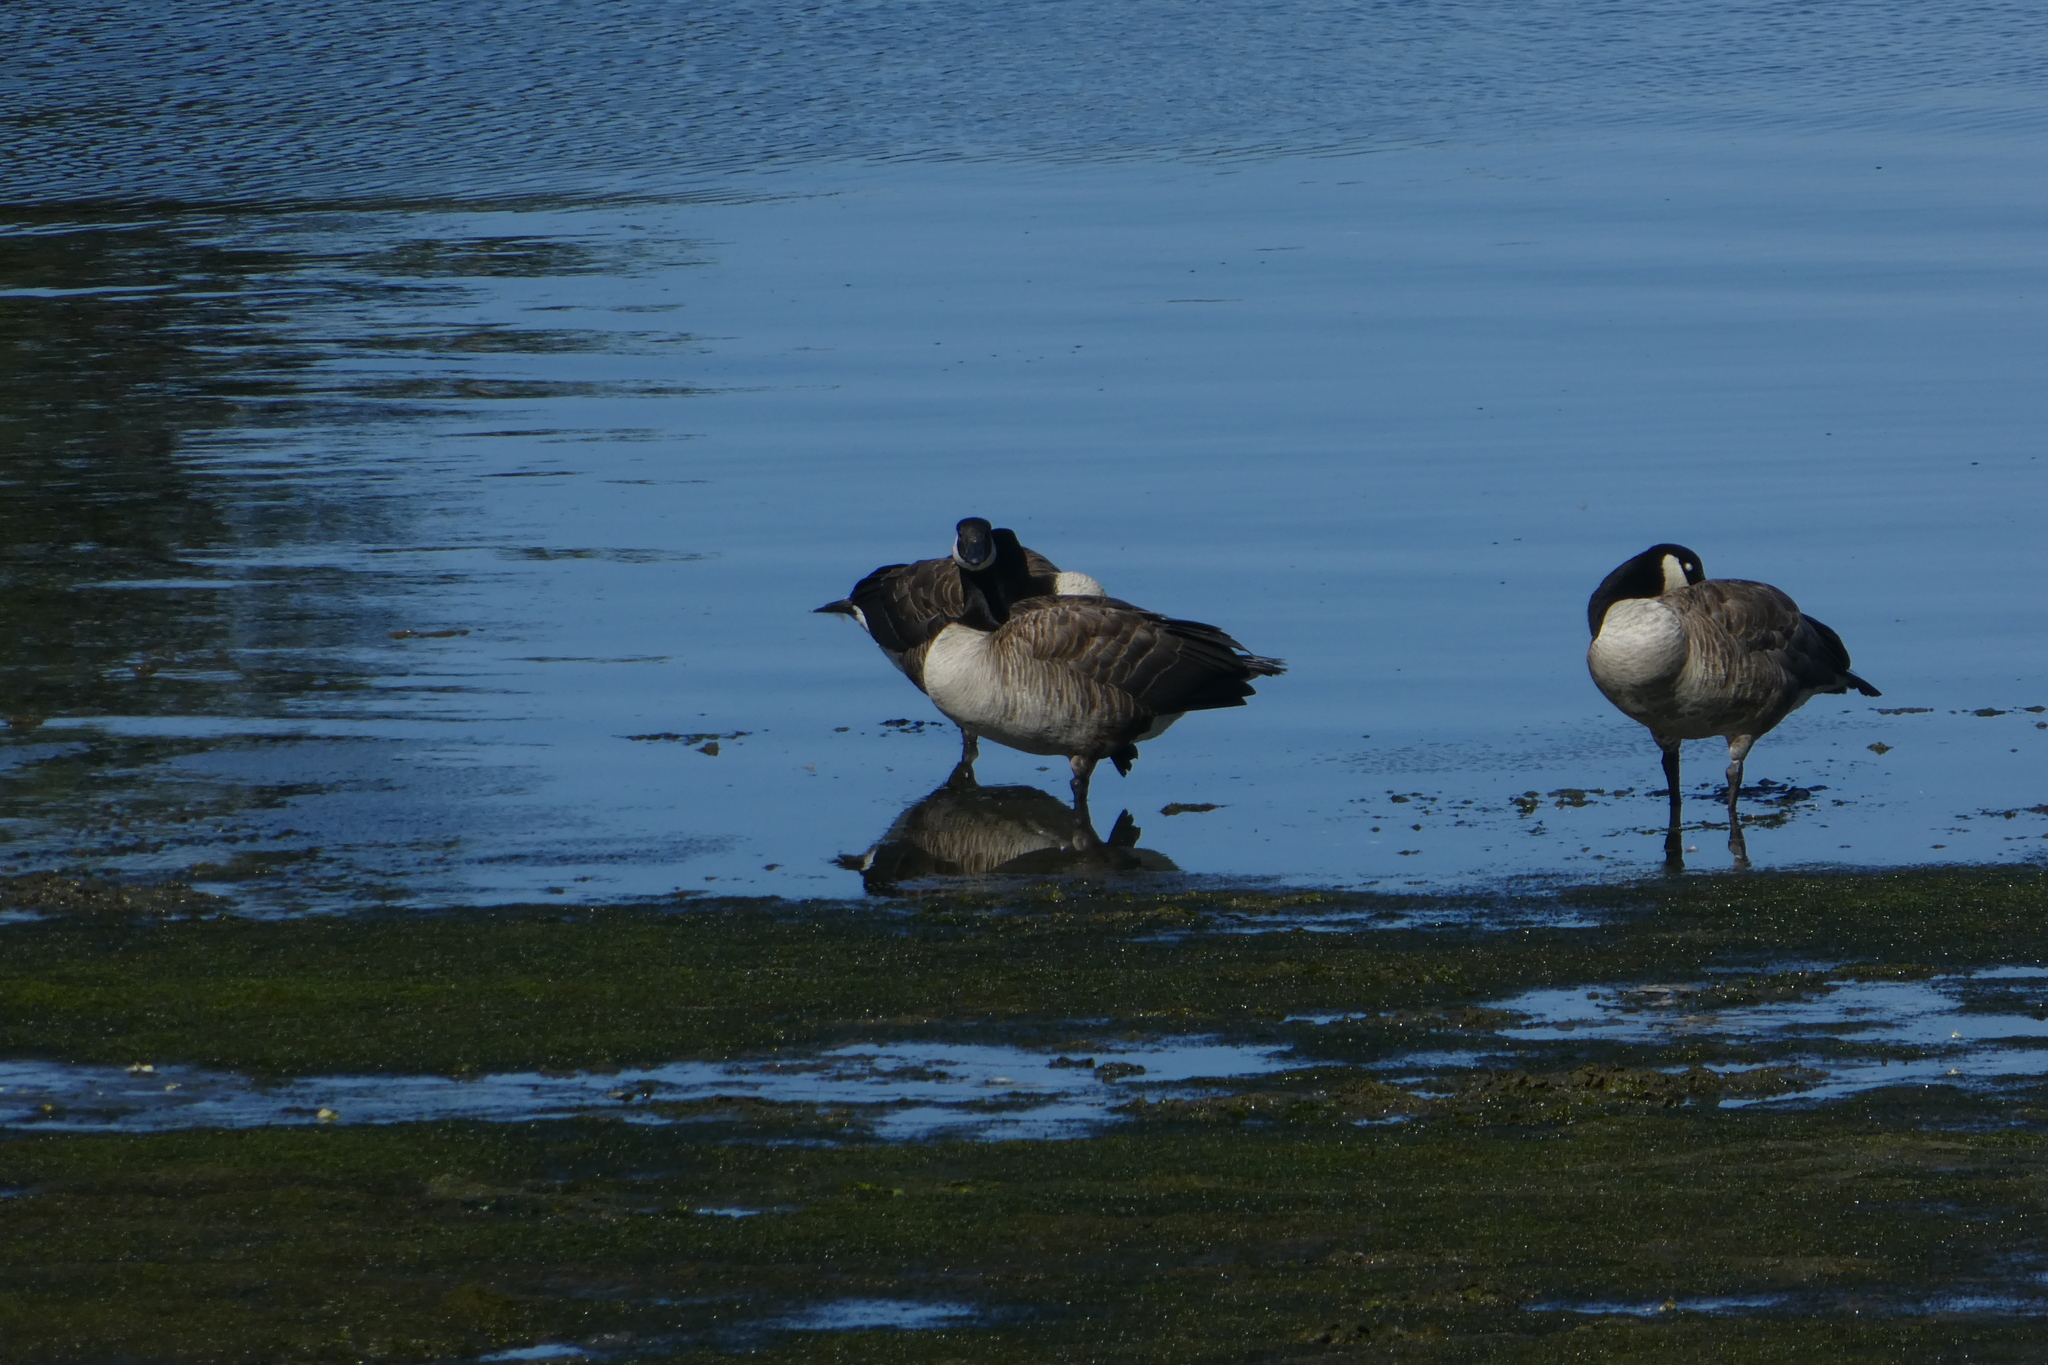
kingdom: Animalia
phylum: Chordata
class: Aves
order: Anseriformes
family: Anatidae
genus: Branta
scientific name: Branta canadensis
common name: Canada goose
